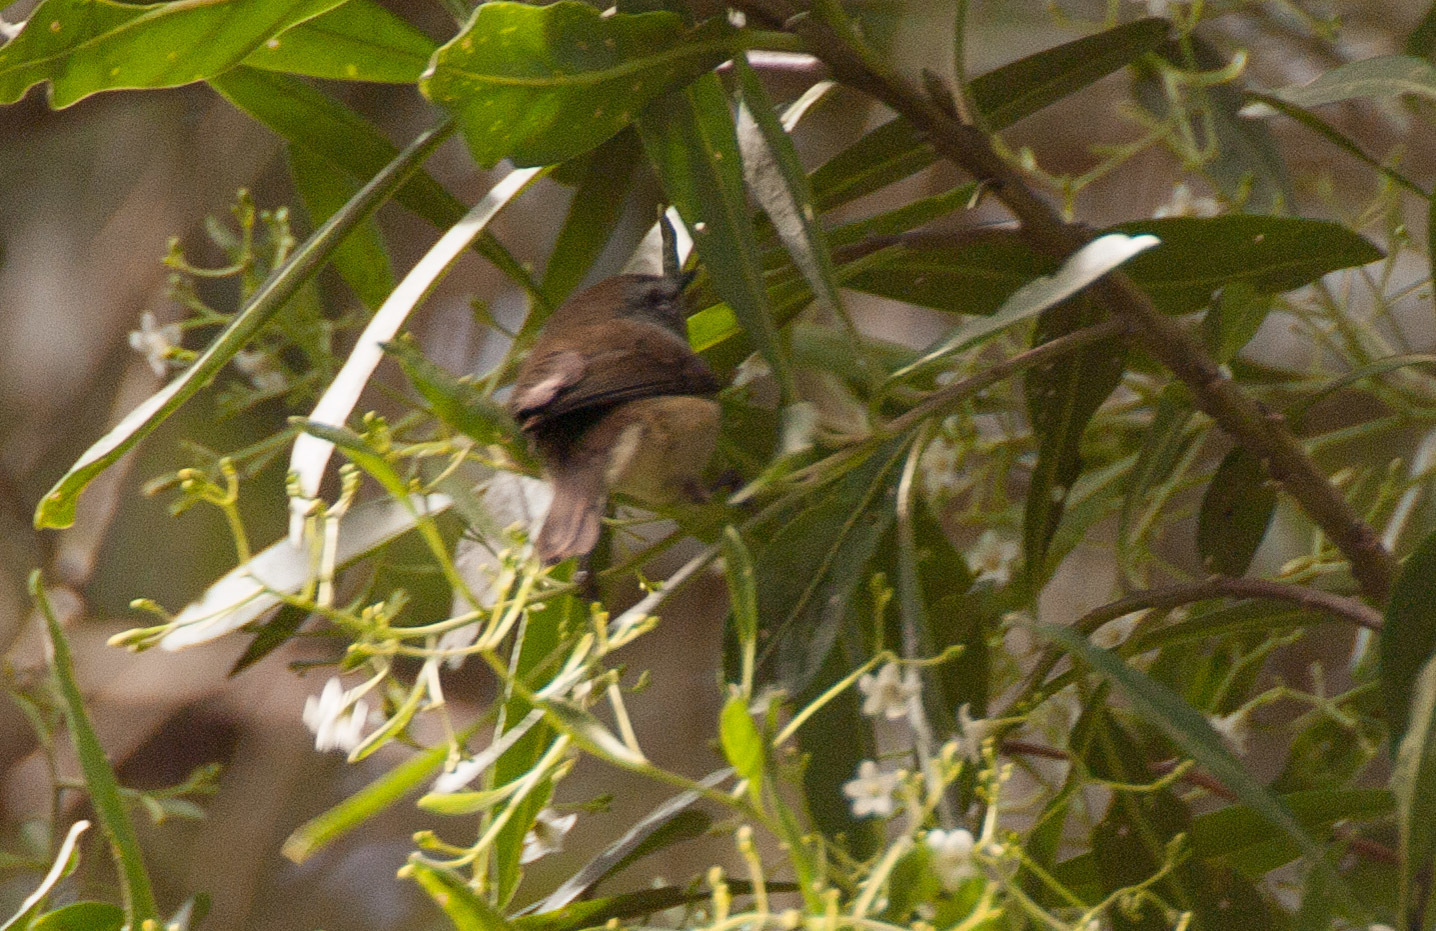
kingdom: Animalia
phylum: Chordata
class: Aves
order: Passeriformes
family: Acanthizidae
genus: Gerygone
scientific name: Gerygone mouki
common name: Brown gerygone
